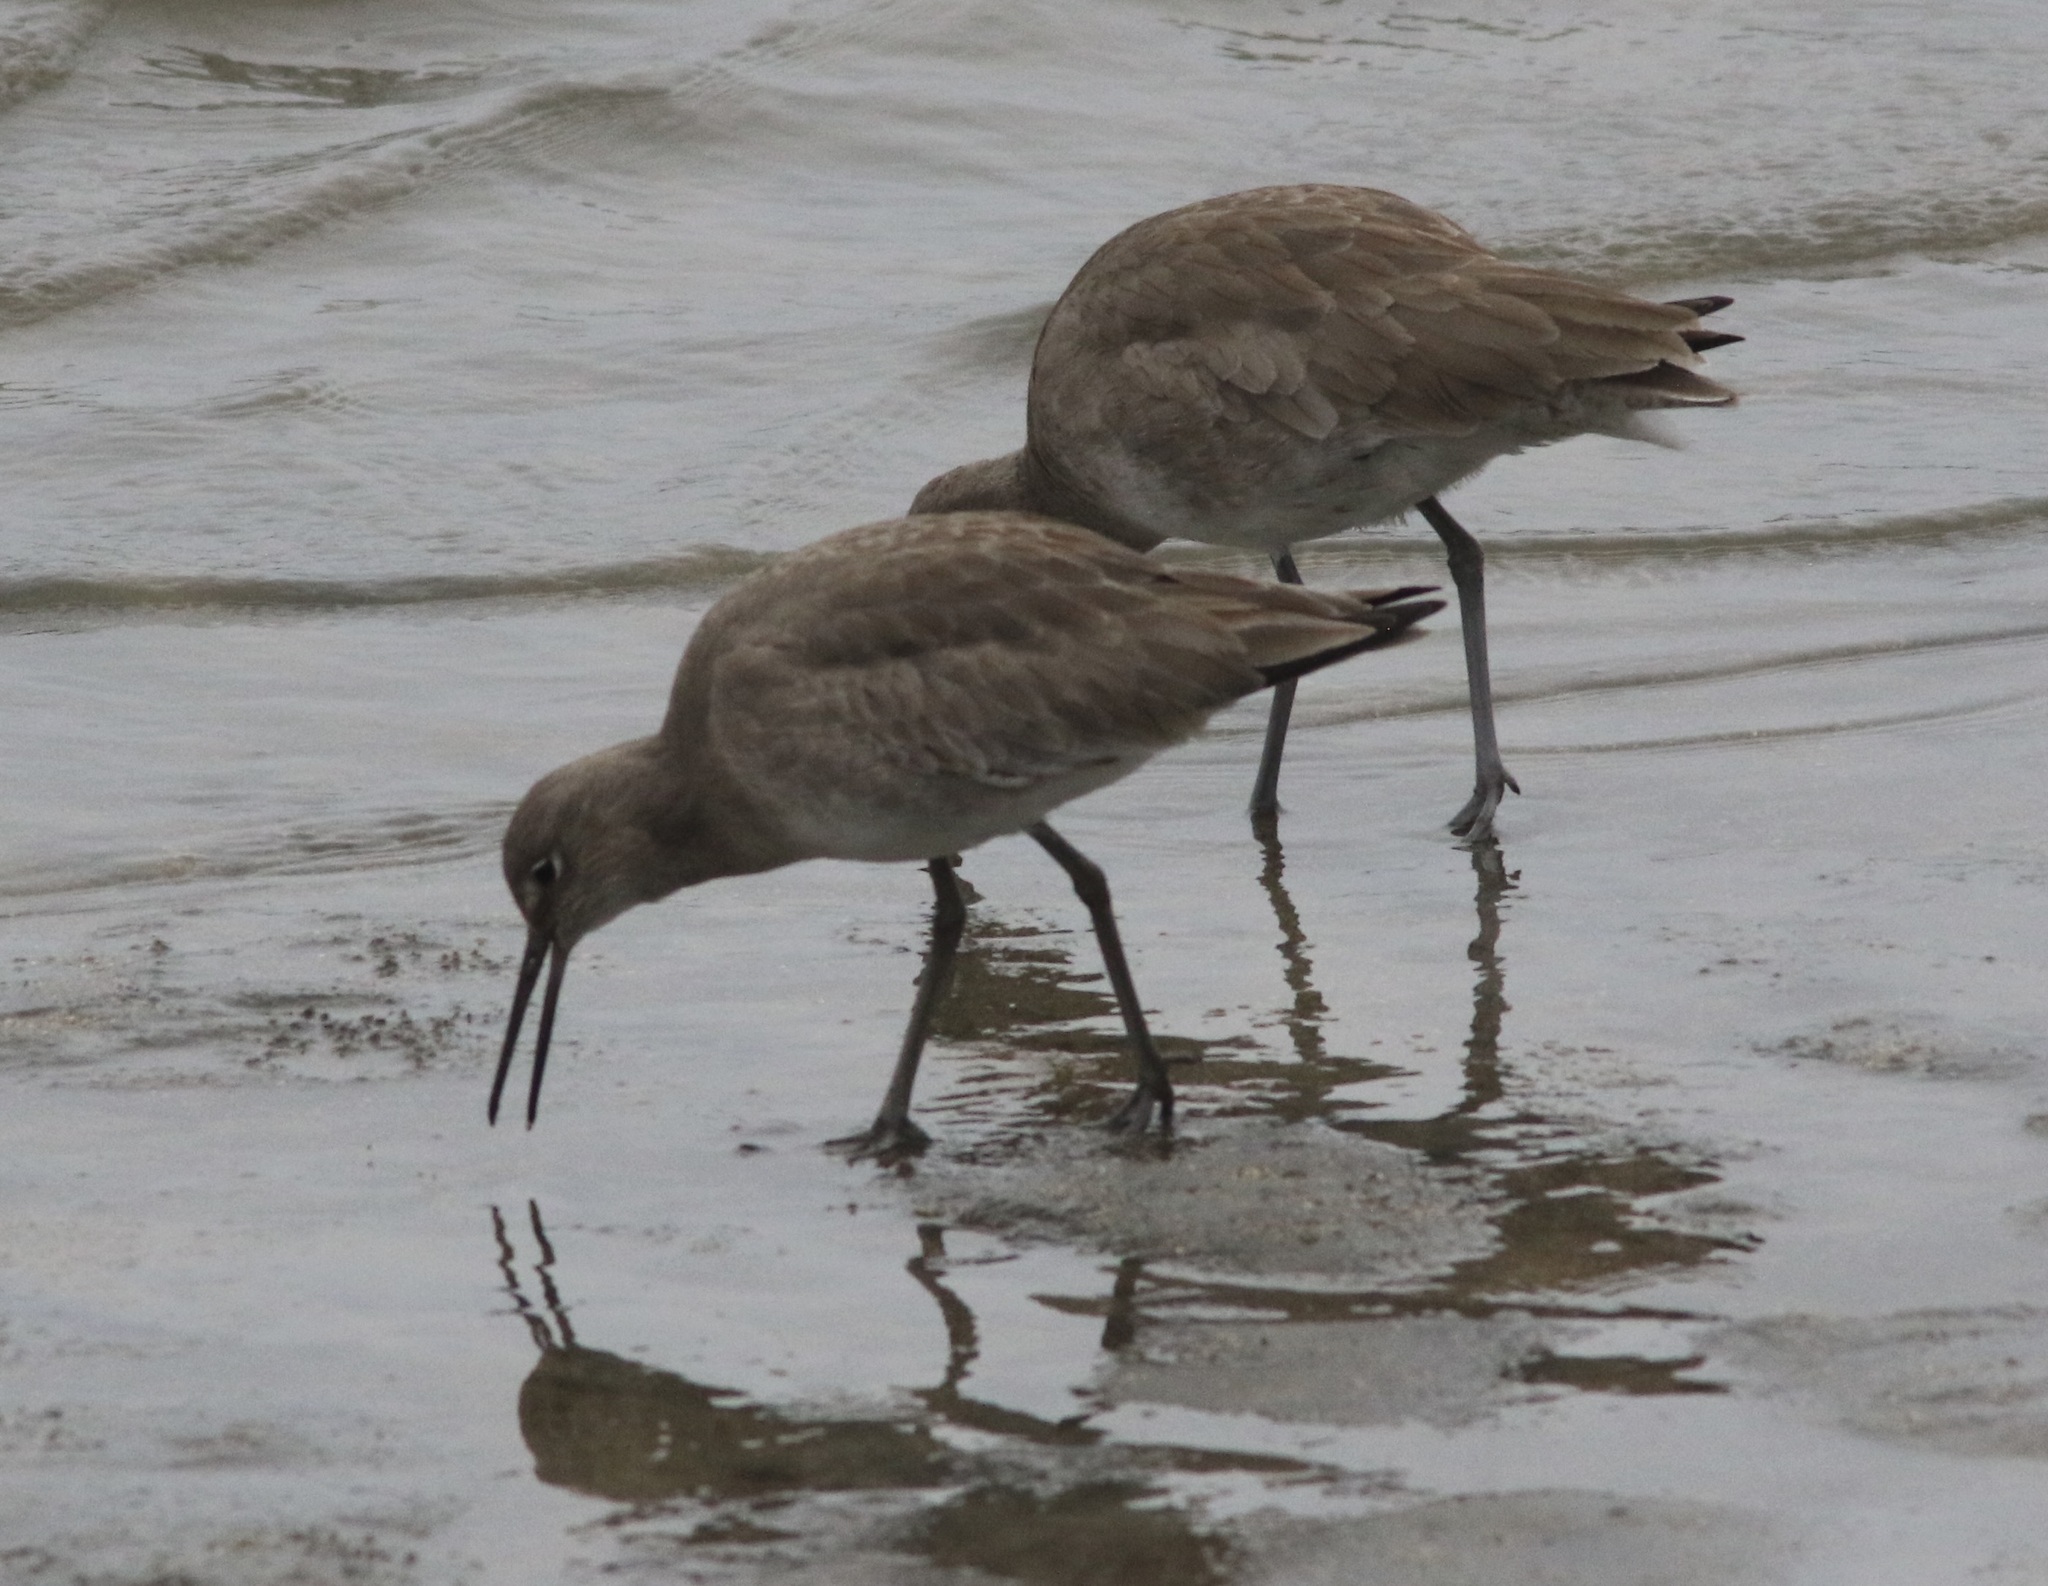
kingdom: Animalia
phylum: Chordata
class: Aves
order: Charadriiformes
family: Scolopacidae
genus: Tringa
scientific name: Tringa semipalmata
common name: Willet
